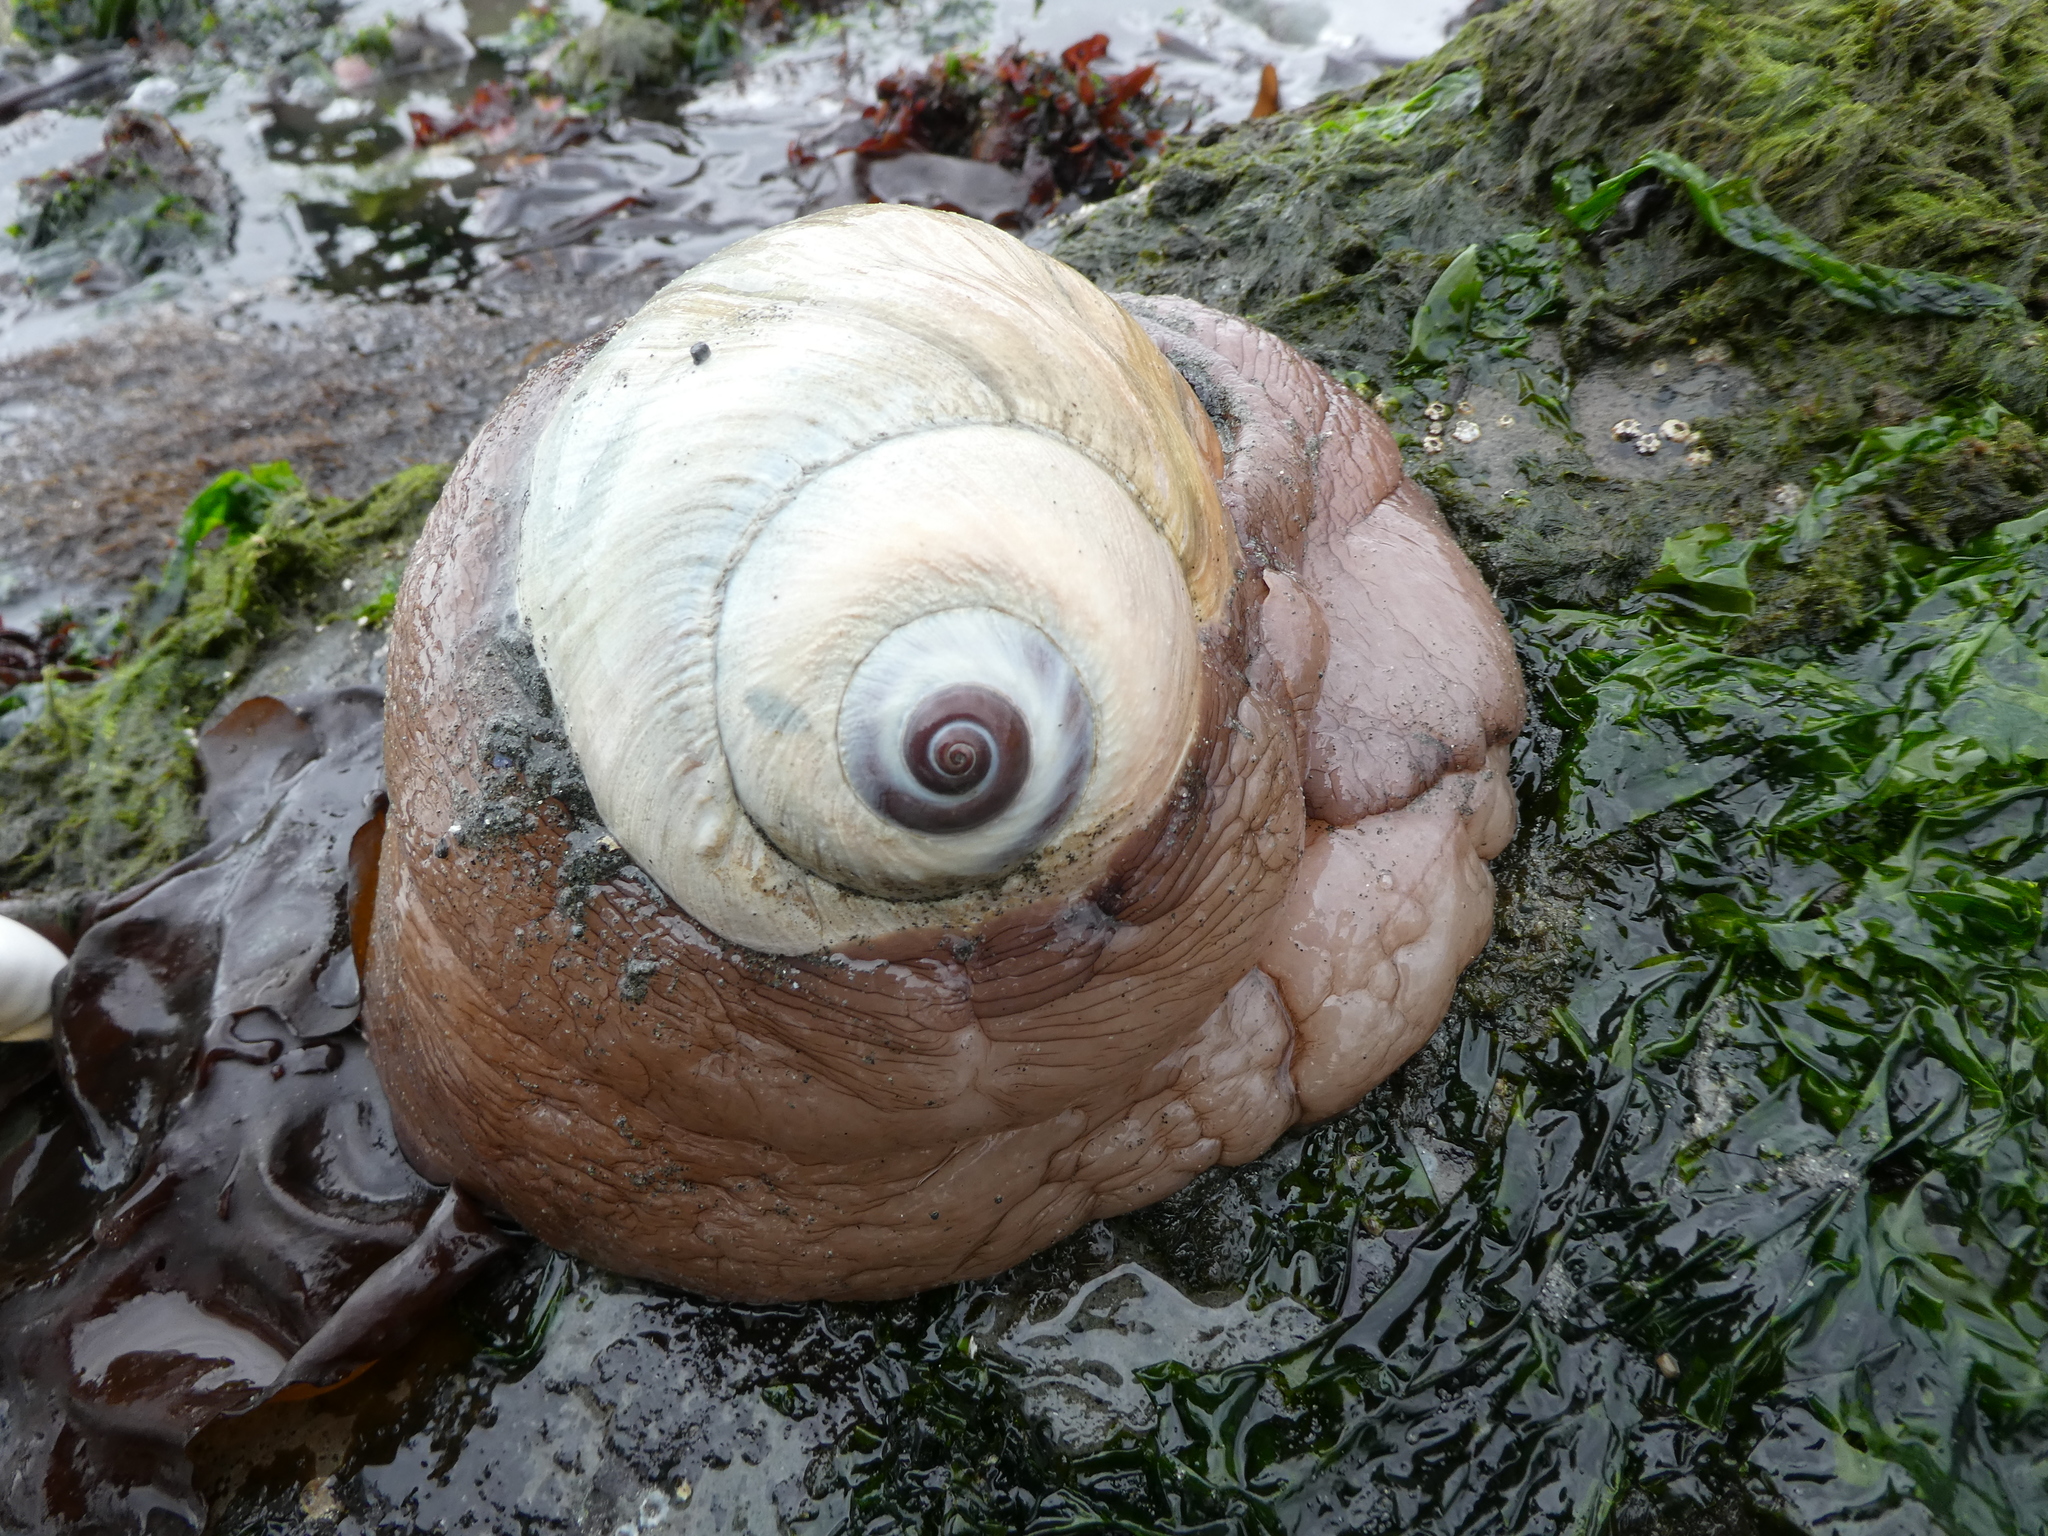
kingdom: Animalia
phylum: Mollusca
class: Gastropoda
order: Littorinimorpha
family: Naticidae
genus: Neverita
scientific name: Neverita lewisii
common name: Lewis' moonsnail
